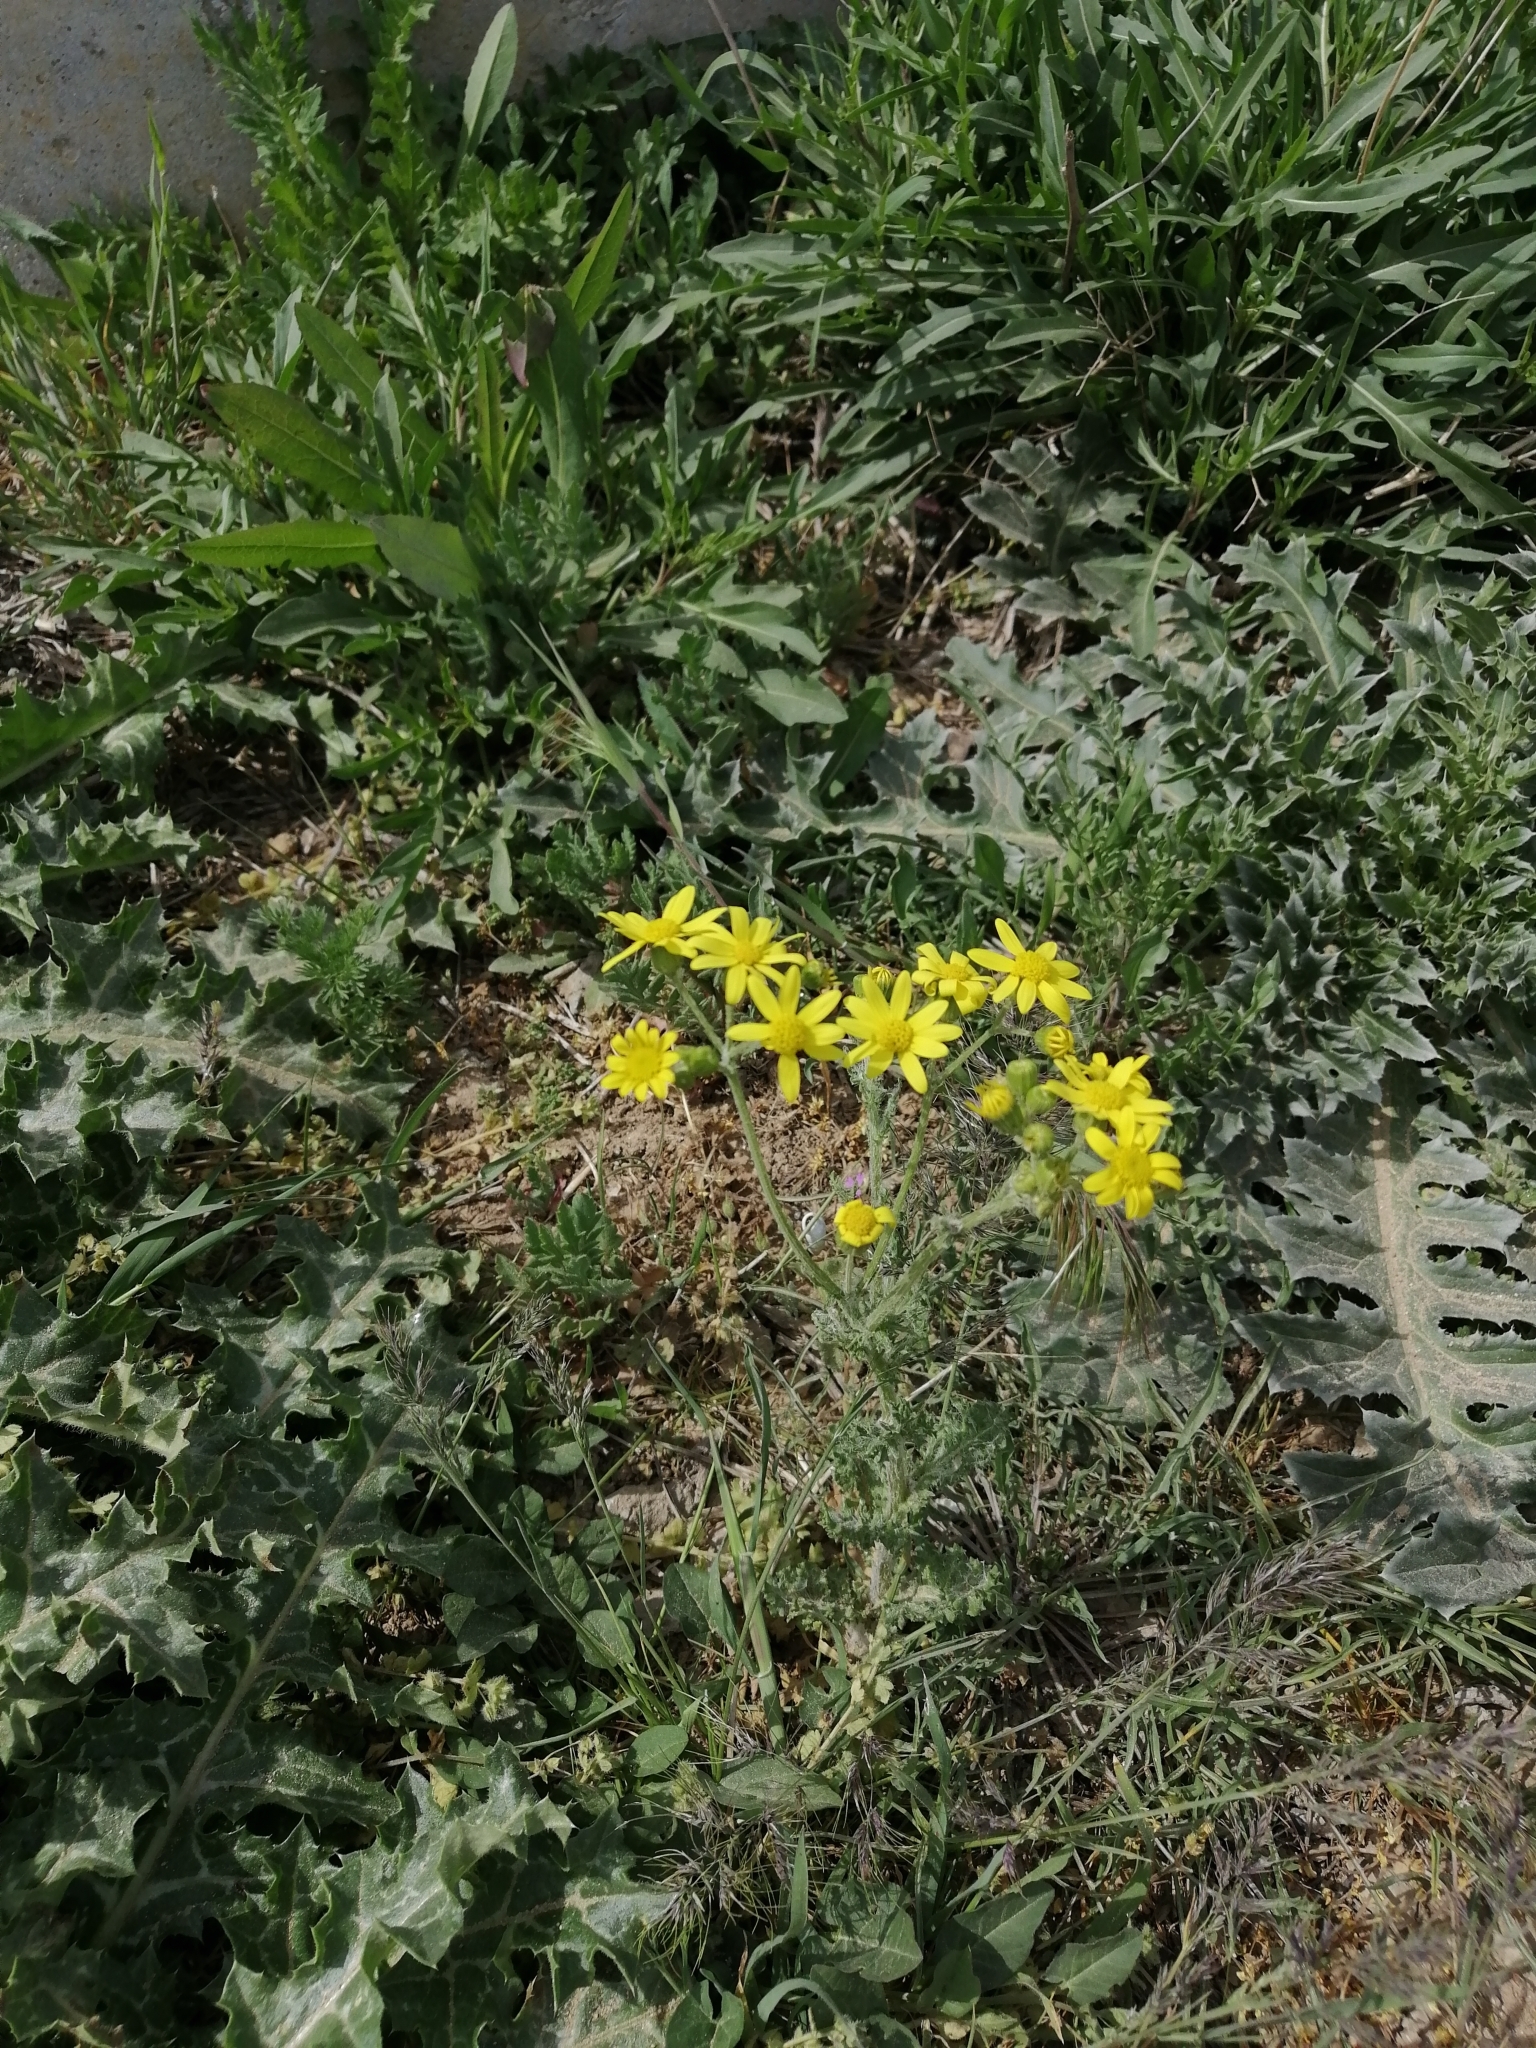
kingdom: Plantae
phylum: Tracheophyta
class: Magnoliopsida
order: Asterales
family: Asteraceae
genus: Senecio
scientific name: Senecio vernalis
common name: Eastern groundsel
